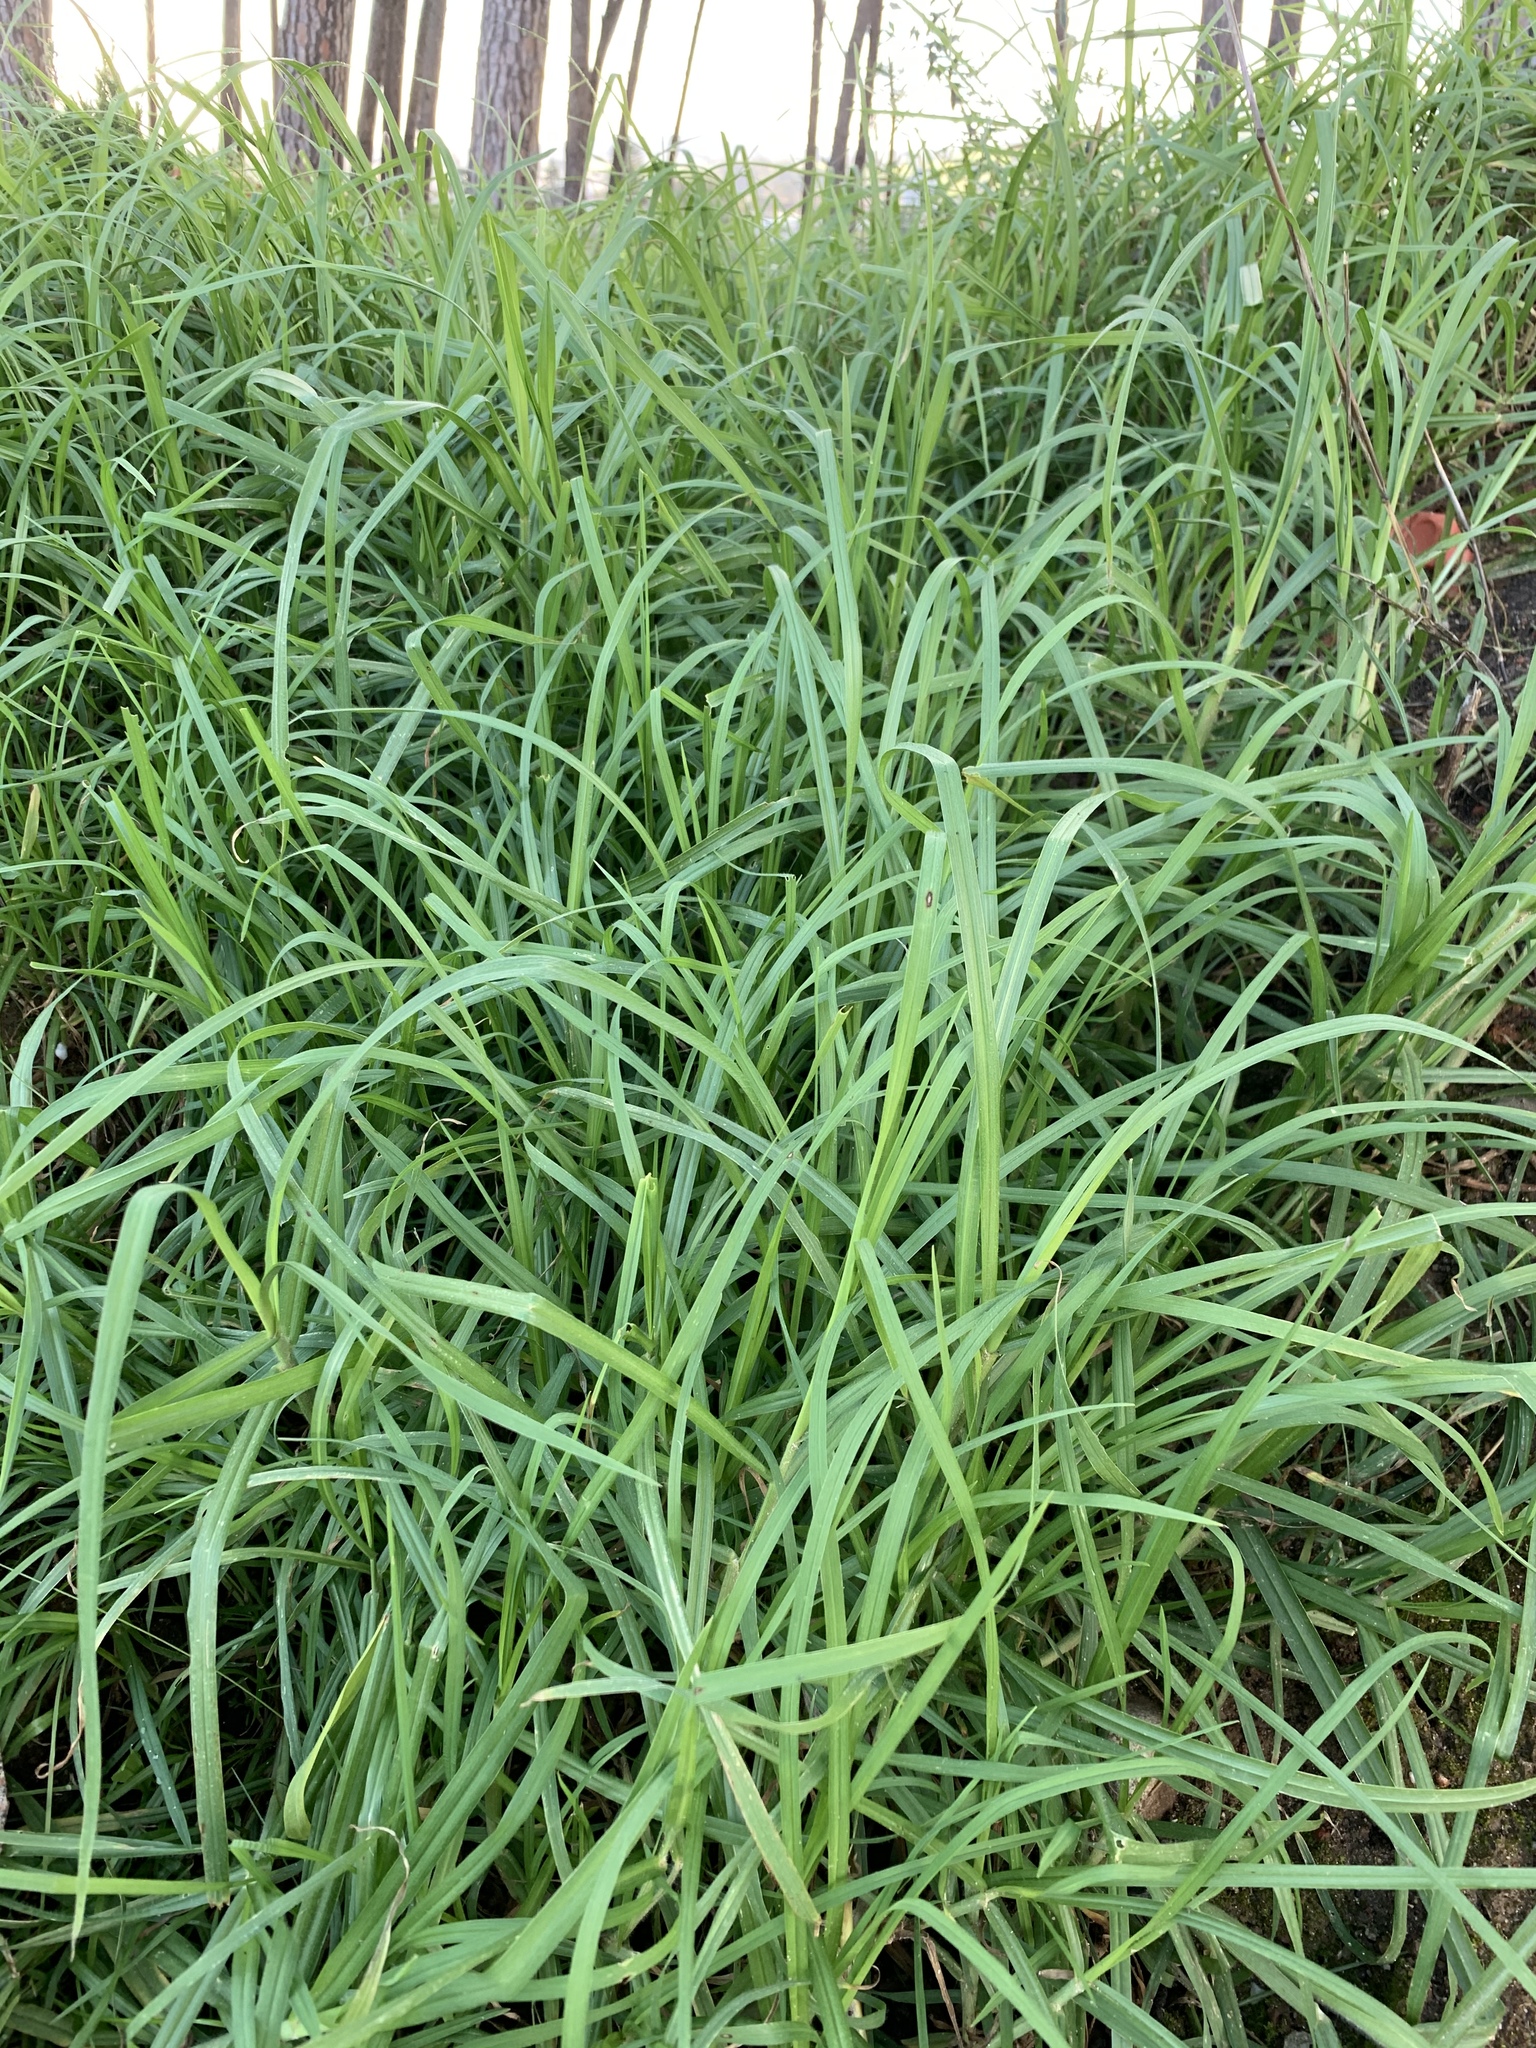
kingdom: Plantae
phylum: Tracheophyta
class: Liliopsida
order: Poales
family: Poaceae
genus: Cenchrus
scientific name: Cenchrus clandestinus
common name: Kikuyugrass
